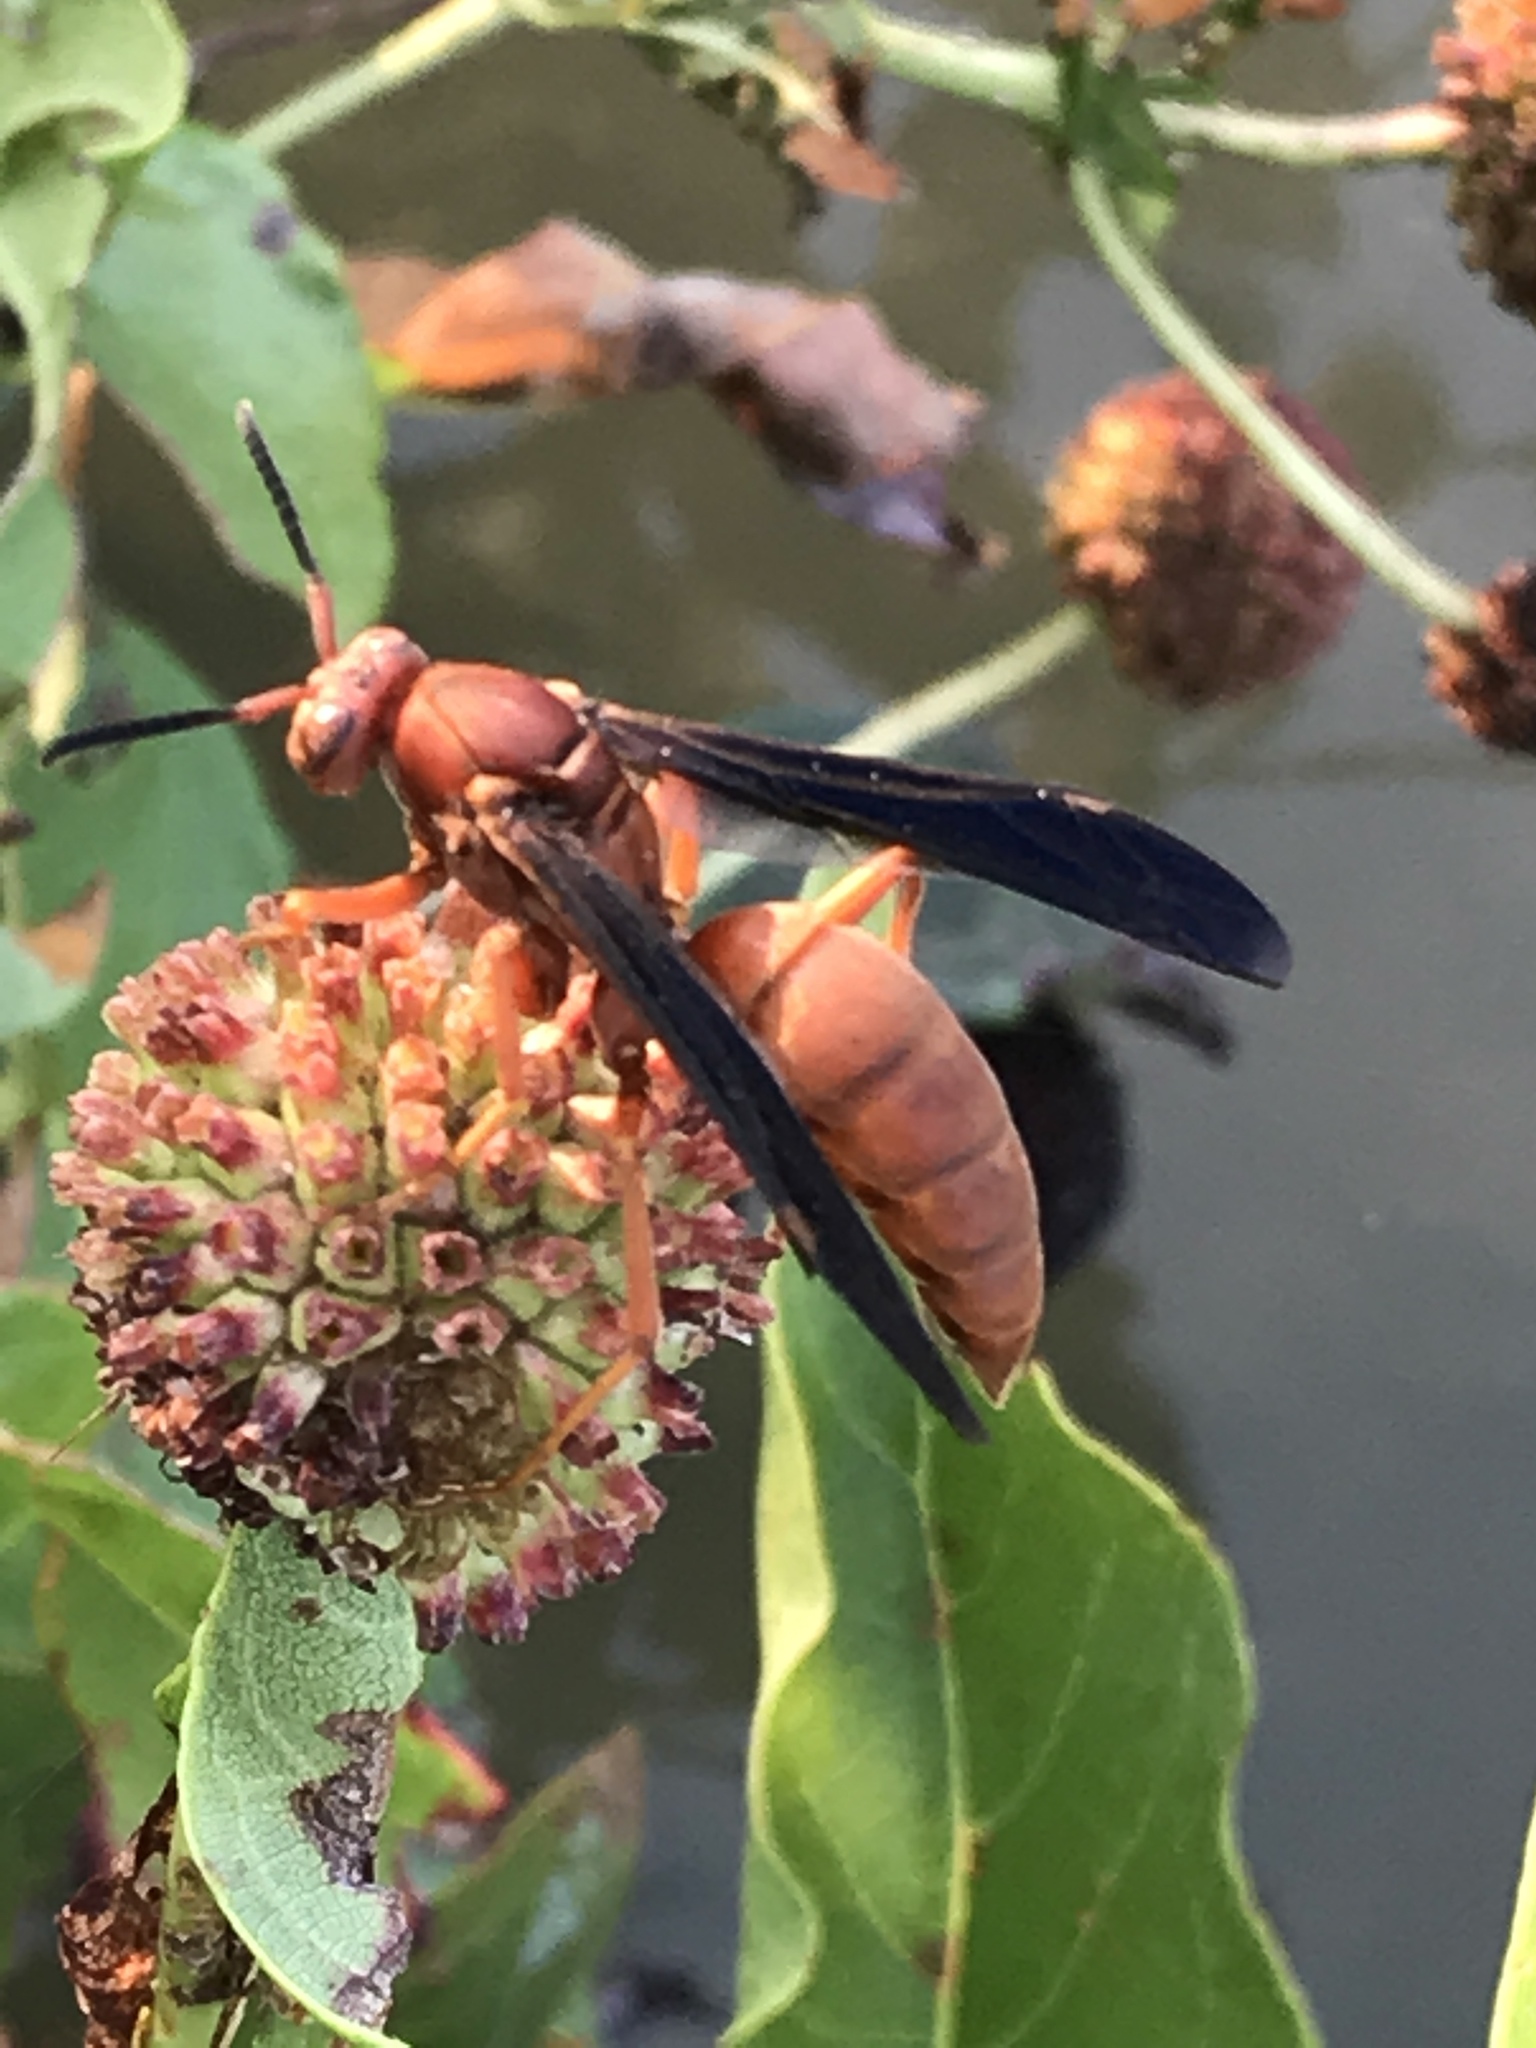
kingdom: Animalia
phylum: Arthropoda
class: Insecta
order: Hymenoptera
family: Vespidae
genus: Fuscopolistes
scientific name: Fuscopolistes
